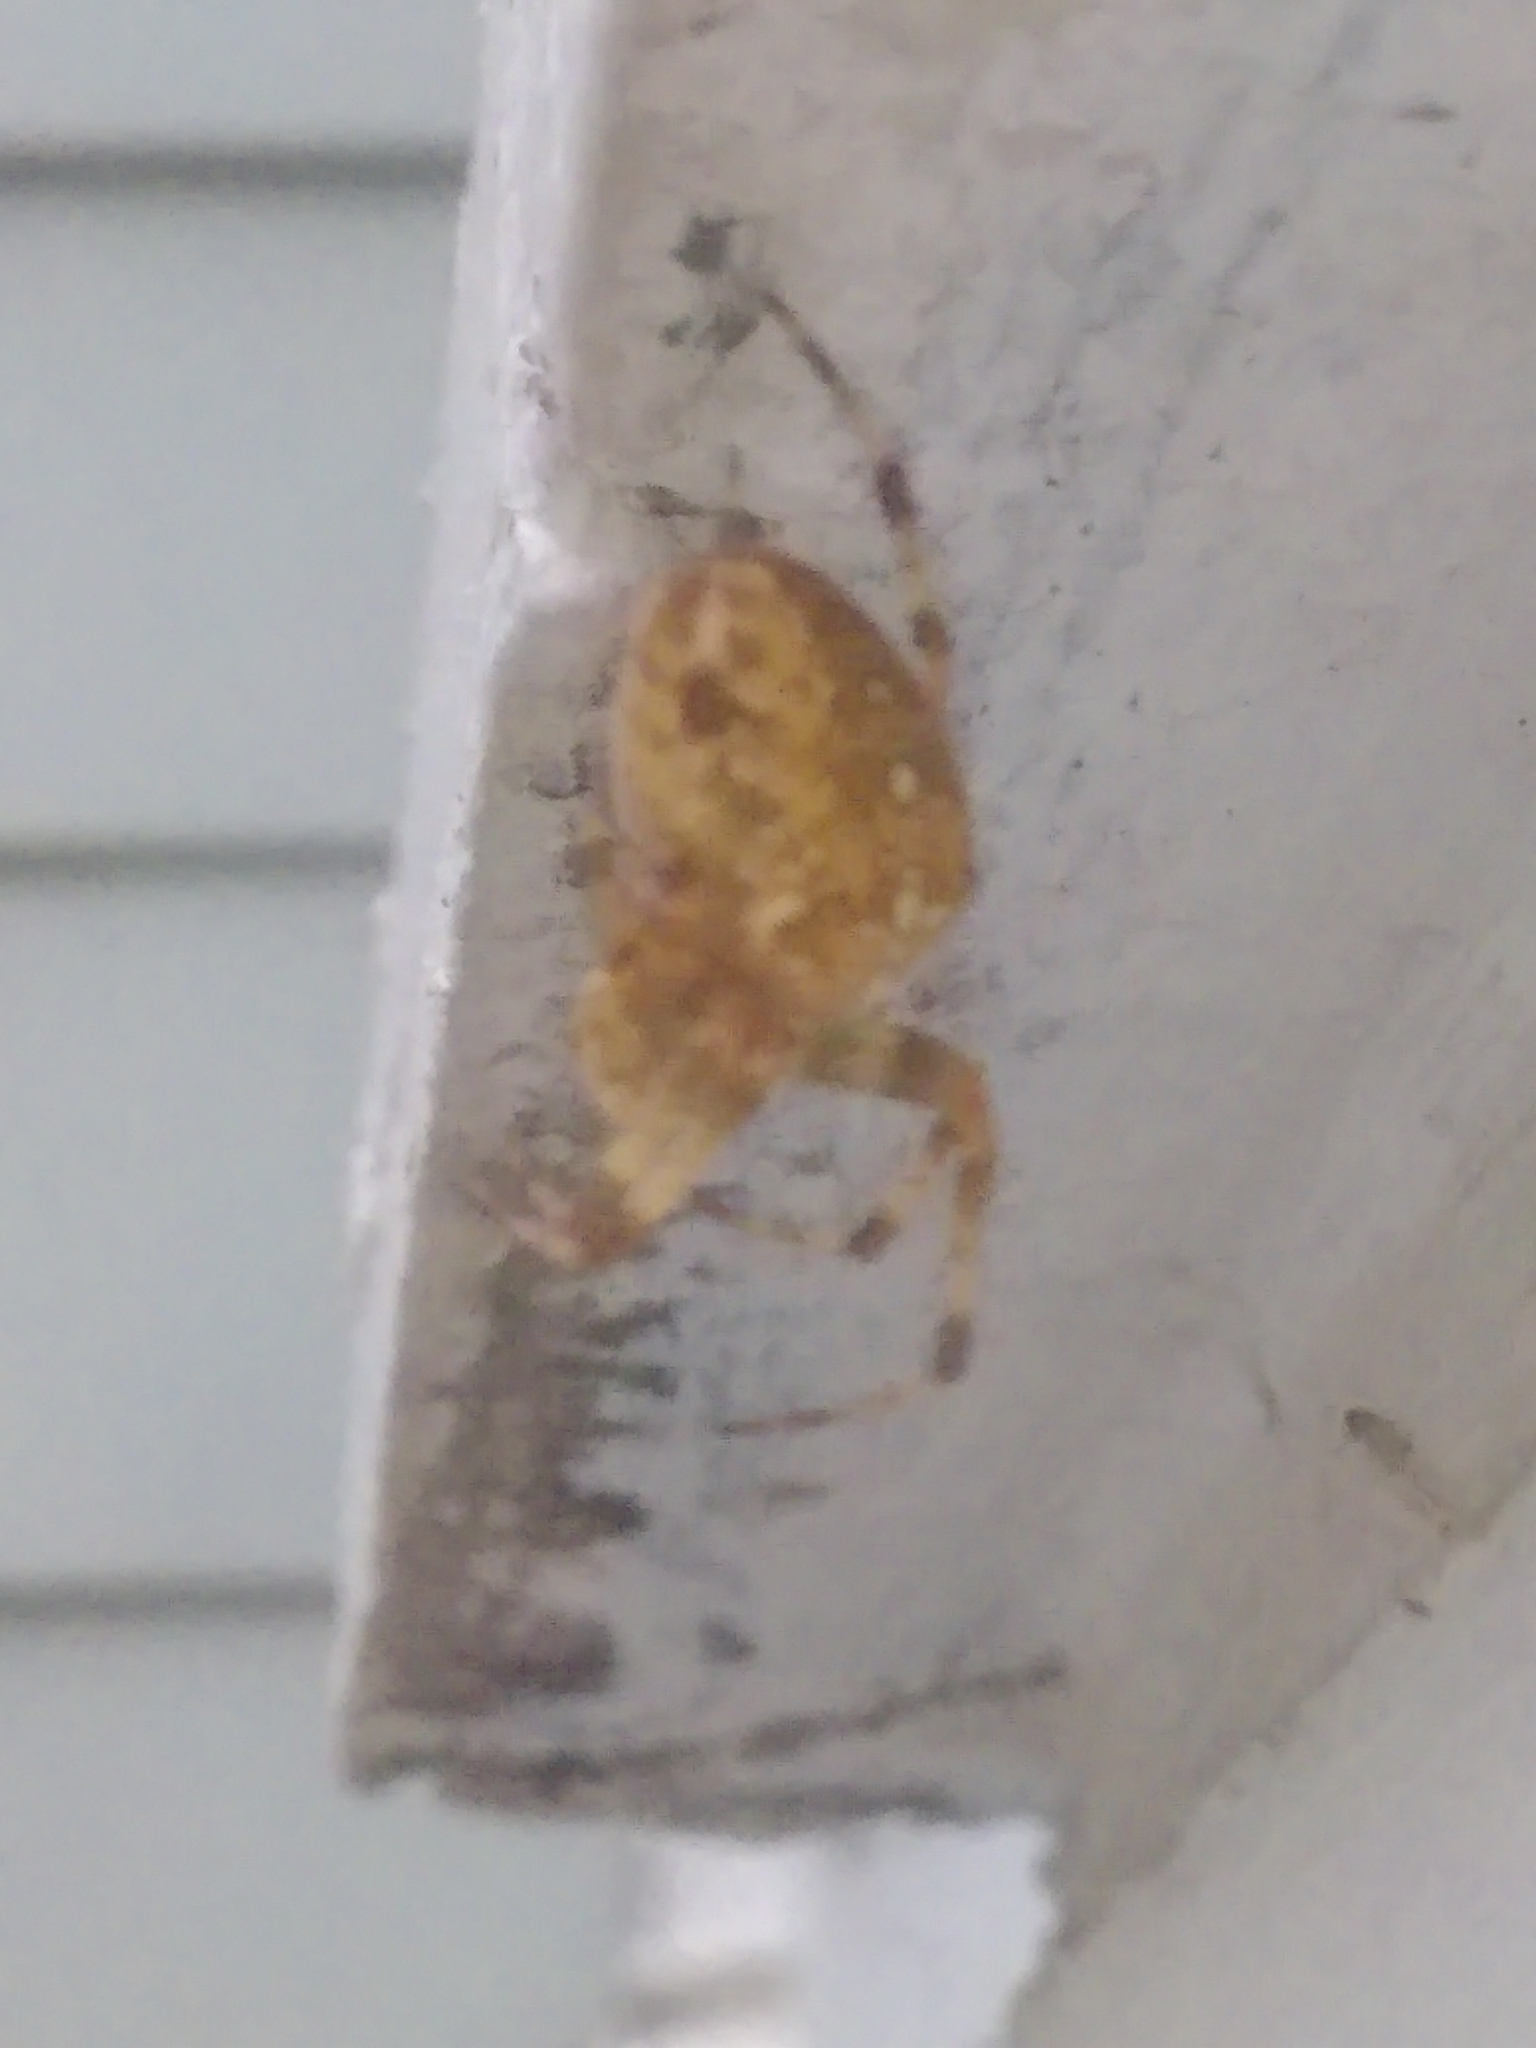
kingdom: Animalia
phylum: Arthropoda
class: Arachnida
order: Araneae
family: Araneidae
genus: Araneus
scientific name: Araneus diadematus
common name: Cross orbweaver
